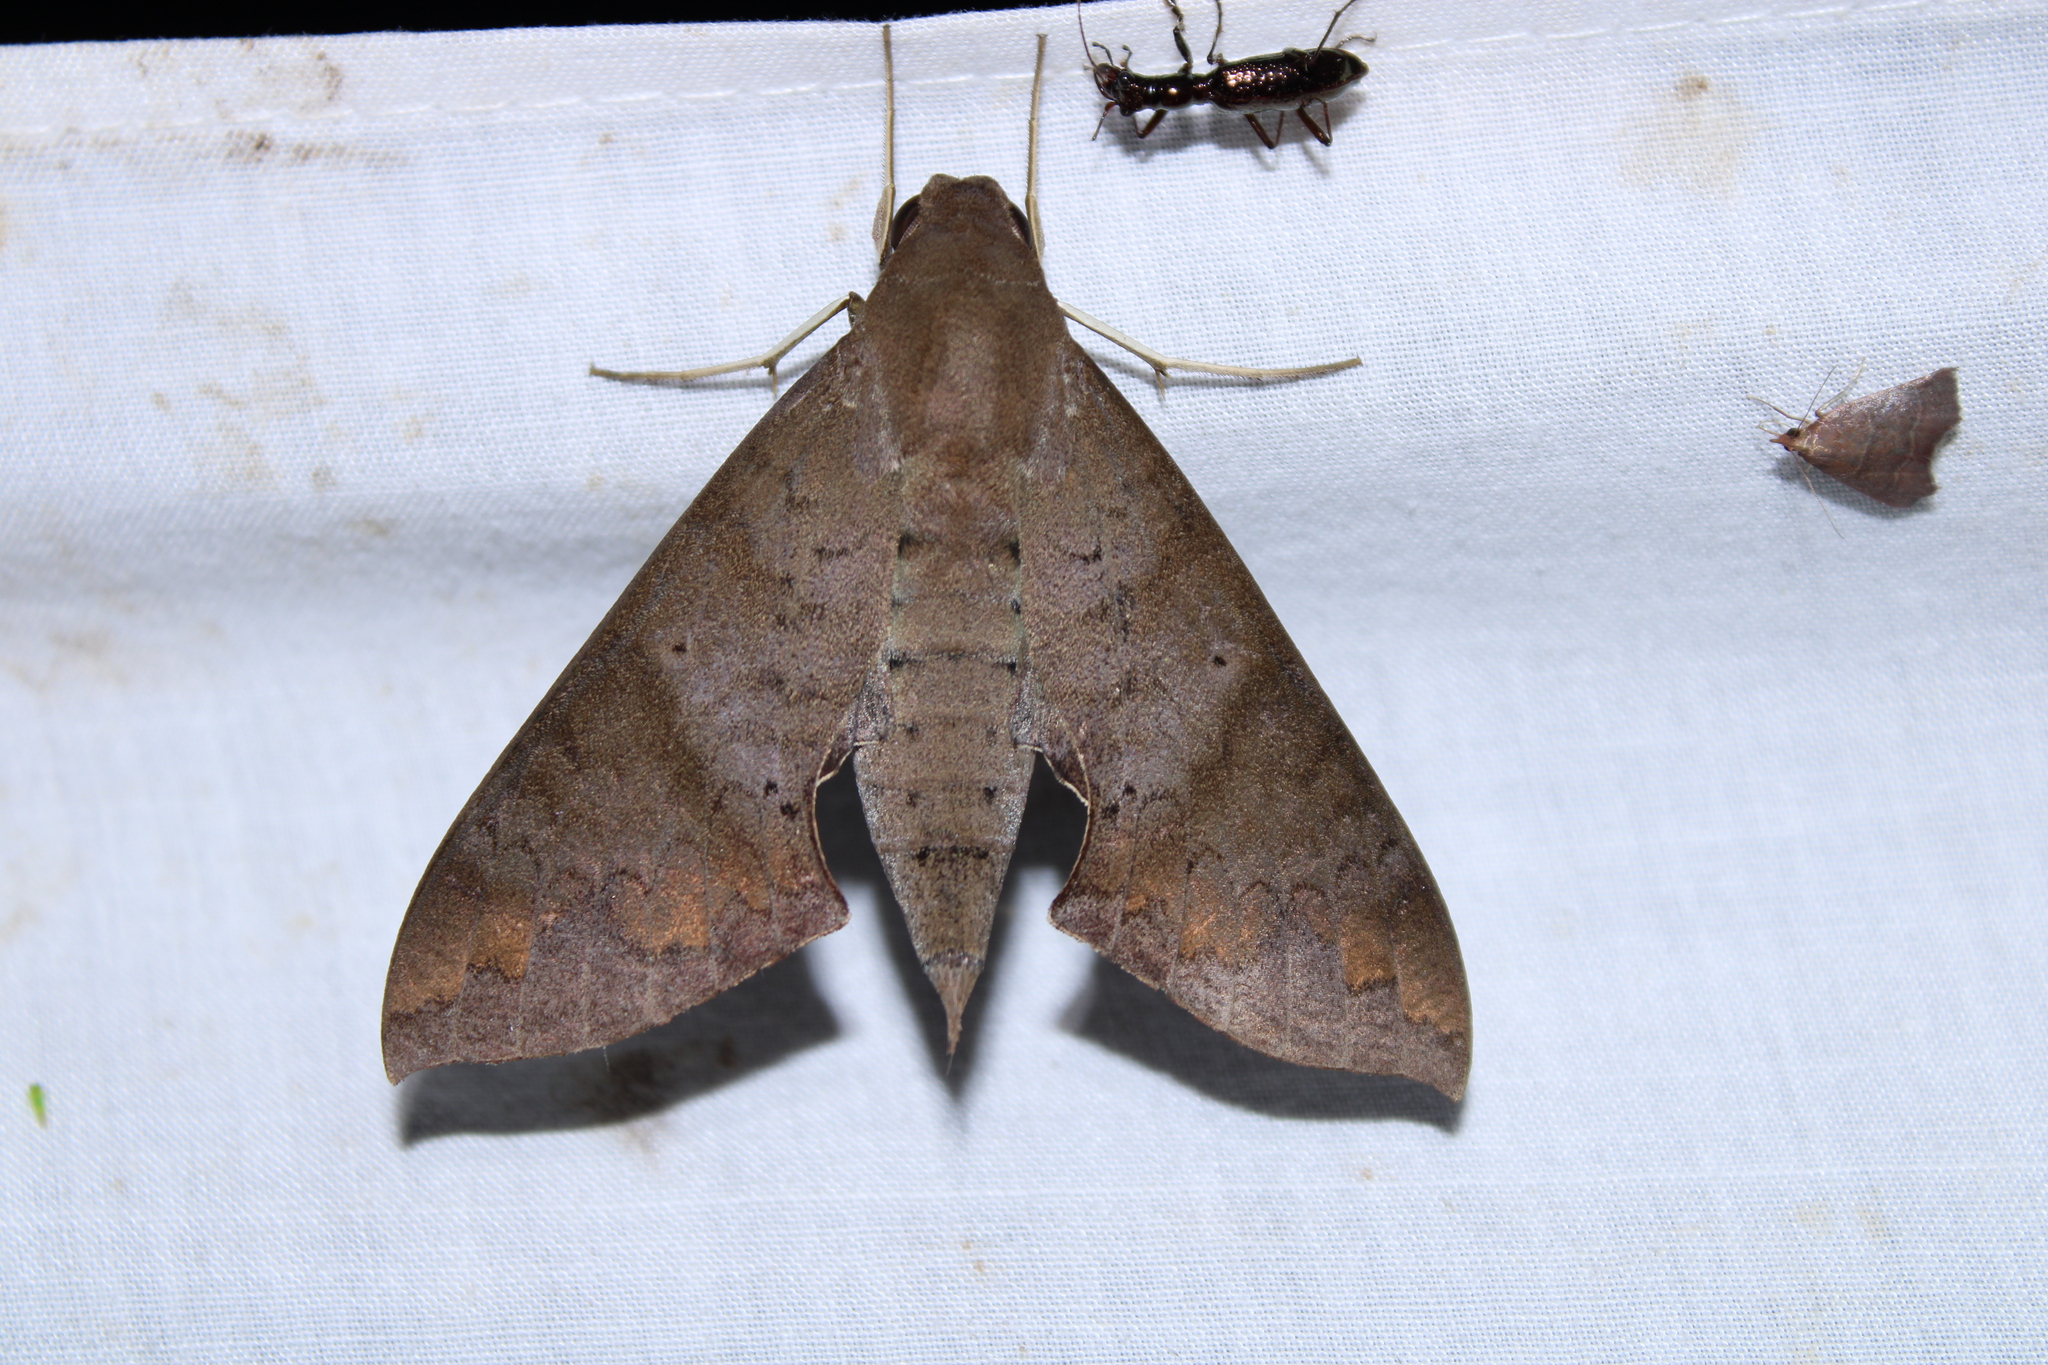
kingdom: Animalia
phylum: Arthropoda
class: Insecta
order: Lepidoptera
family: Sphingidae
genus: Pachylioides
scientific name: Pachylioides resumens
